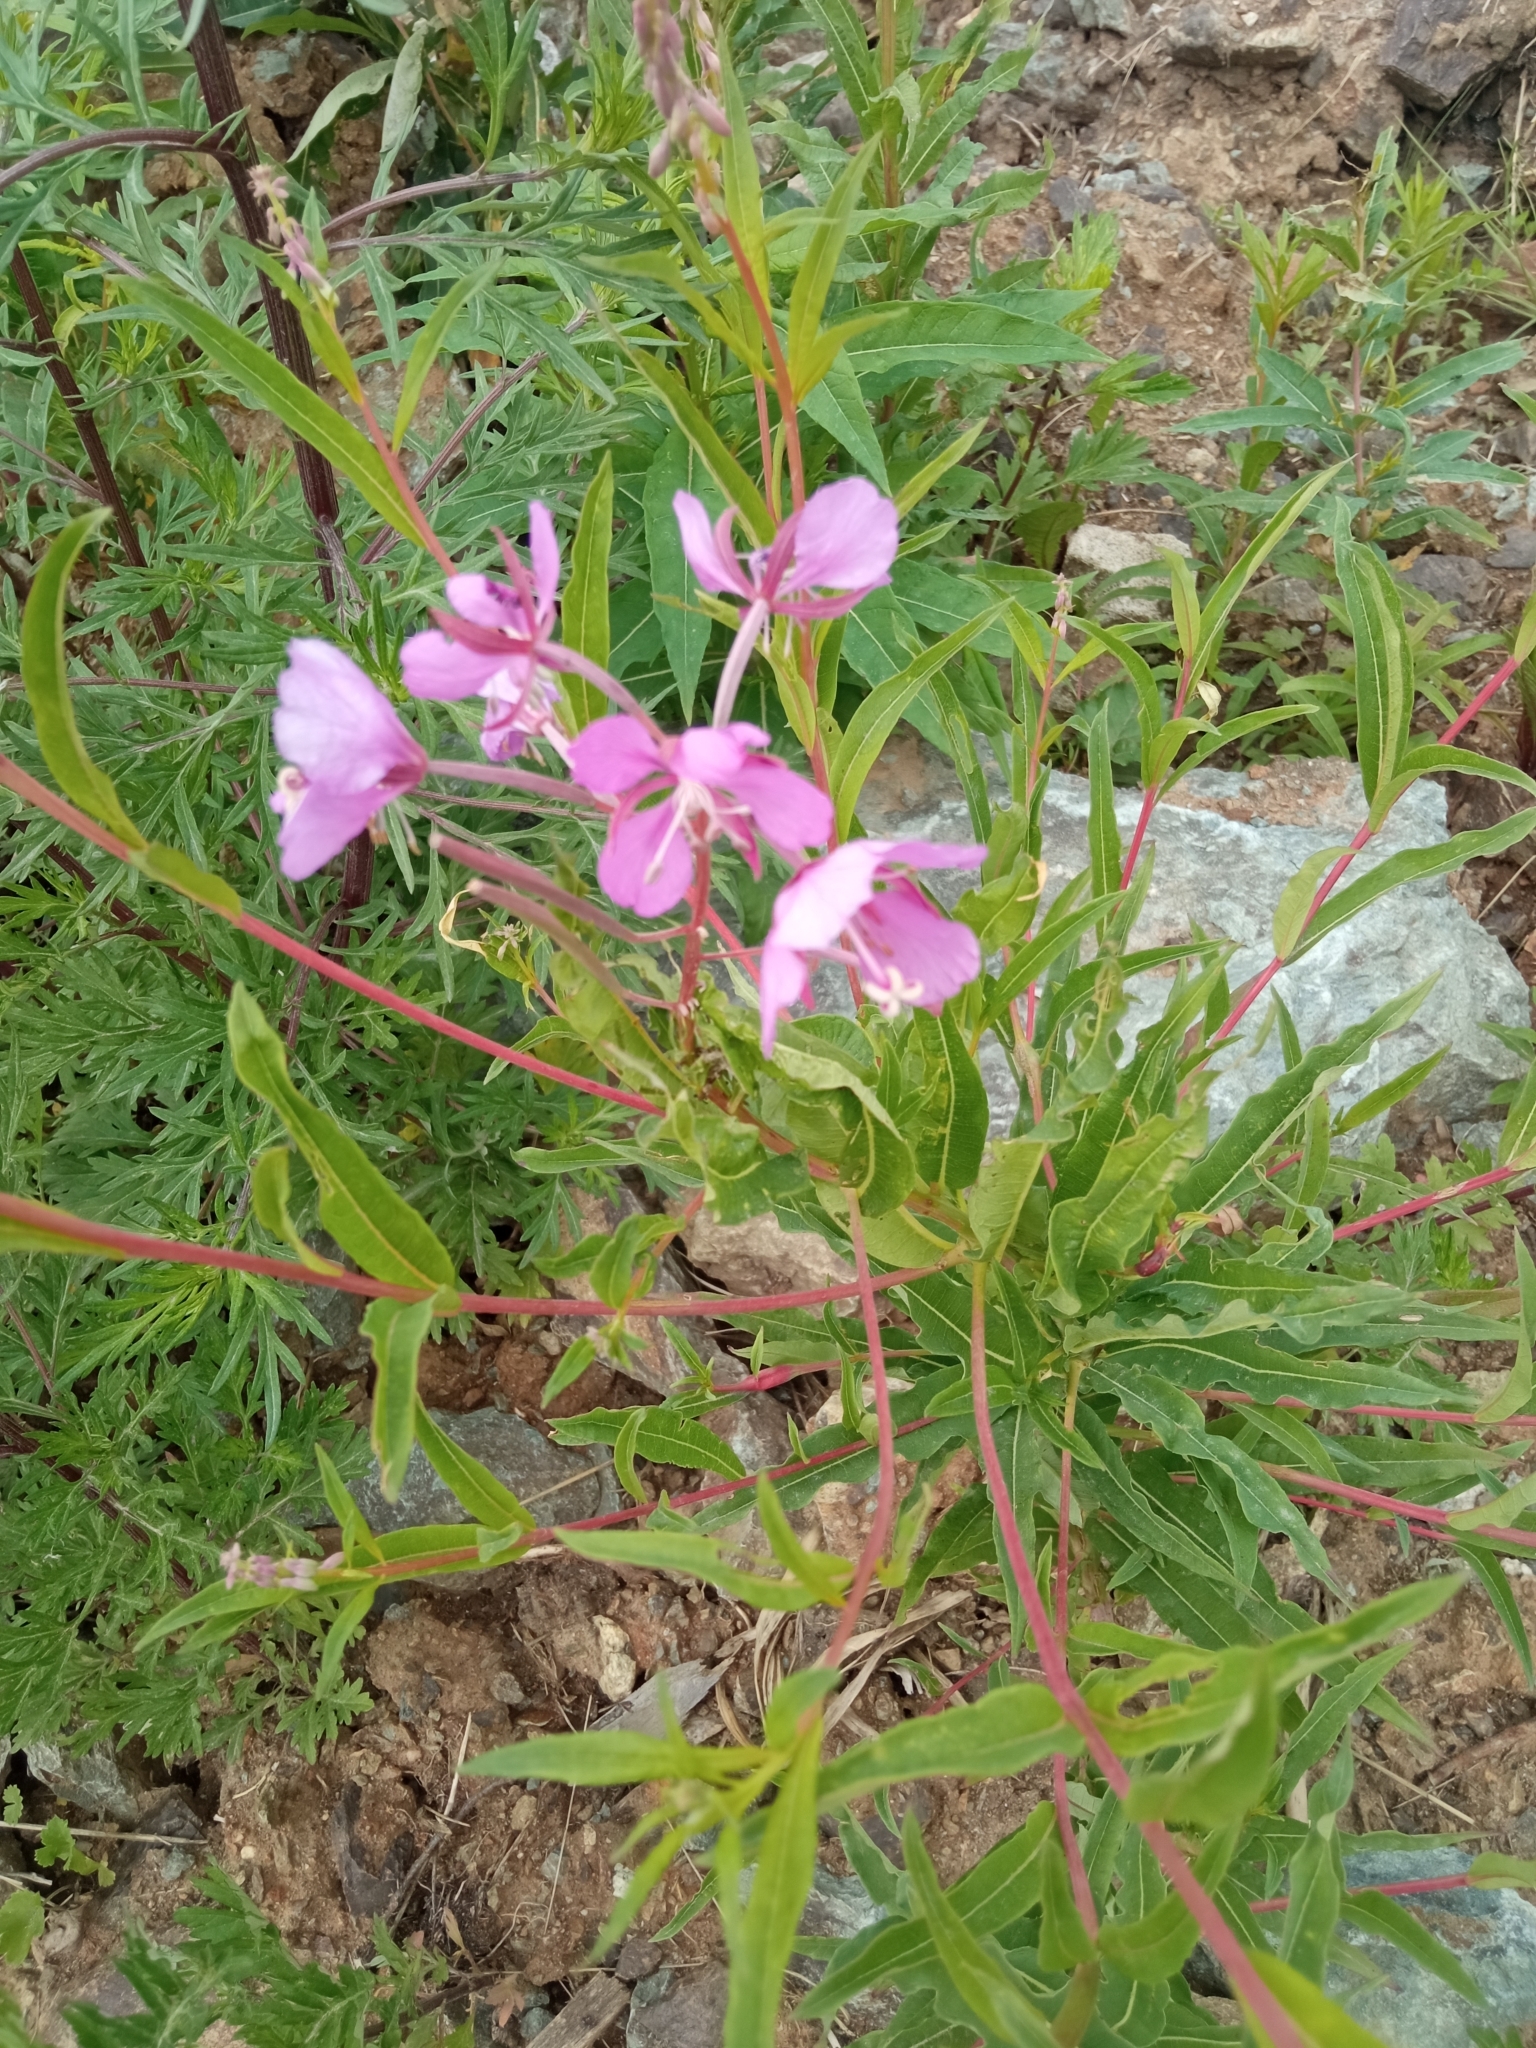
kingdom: Plantae
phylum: Tracheophyta
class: Magnoliopsida
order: Myrtales
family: Onagraceae
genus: Chamaenerion
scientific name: Chamaenerion angustifolium
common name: Fireweed
